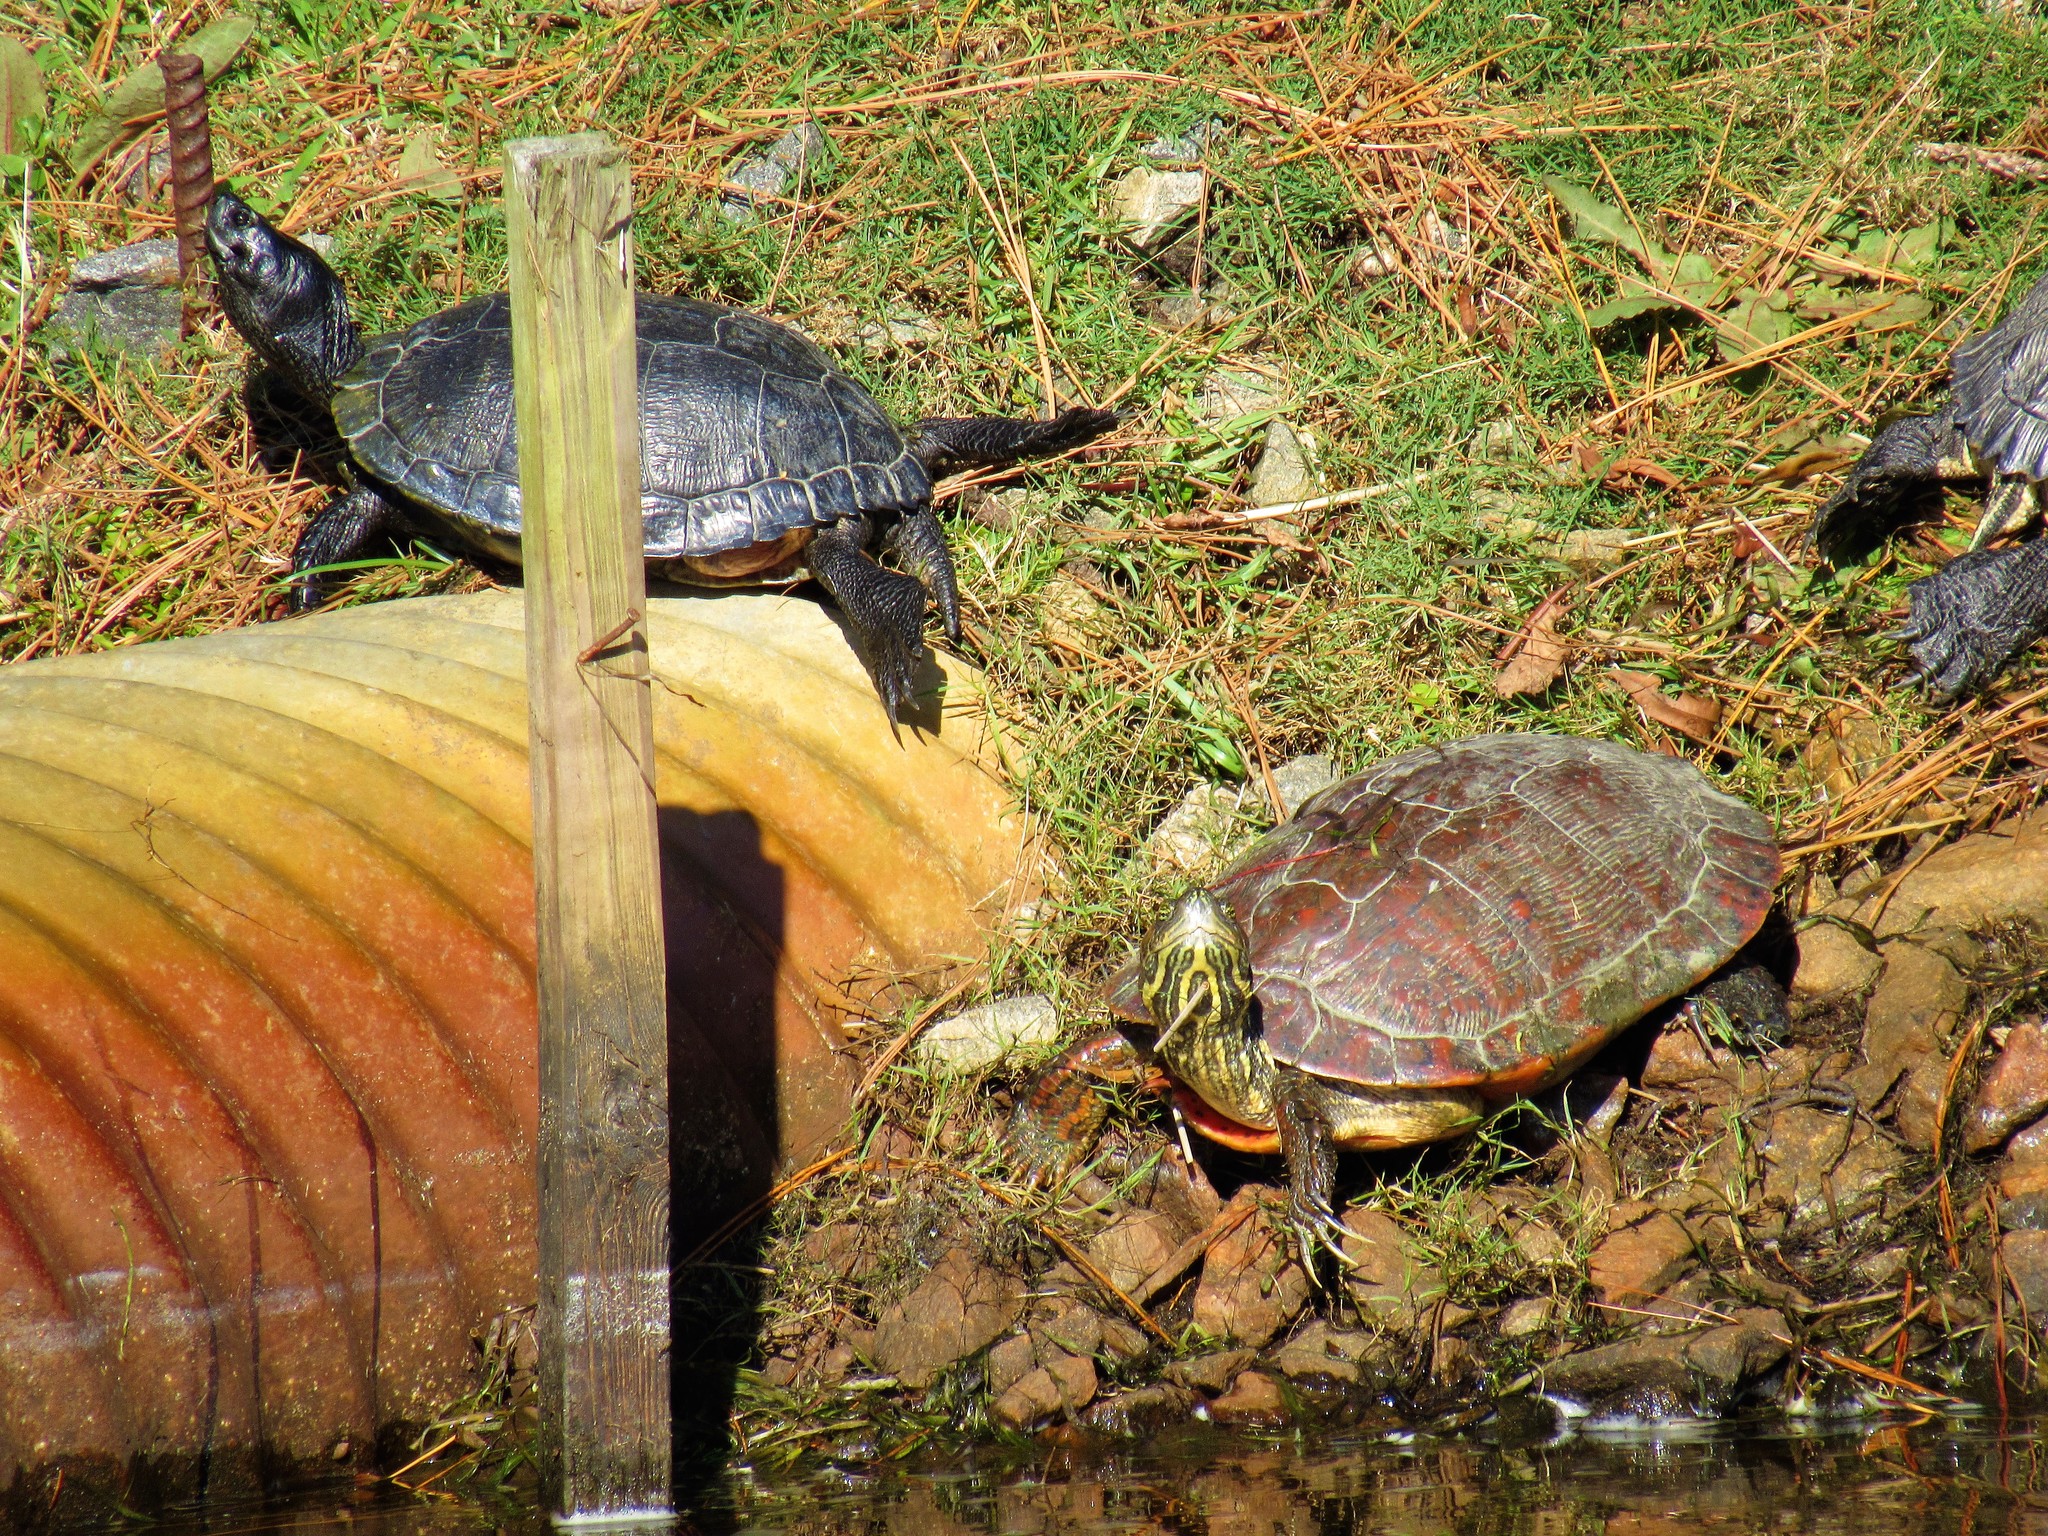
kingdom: Animalia
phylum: Chordata
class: Testudines
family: Emydidae
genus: Pseudemys
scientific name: Pseudemys rubriventris
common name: American red-bellied turtle
